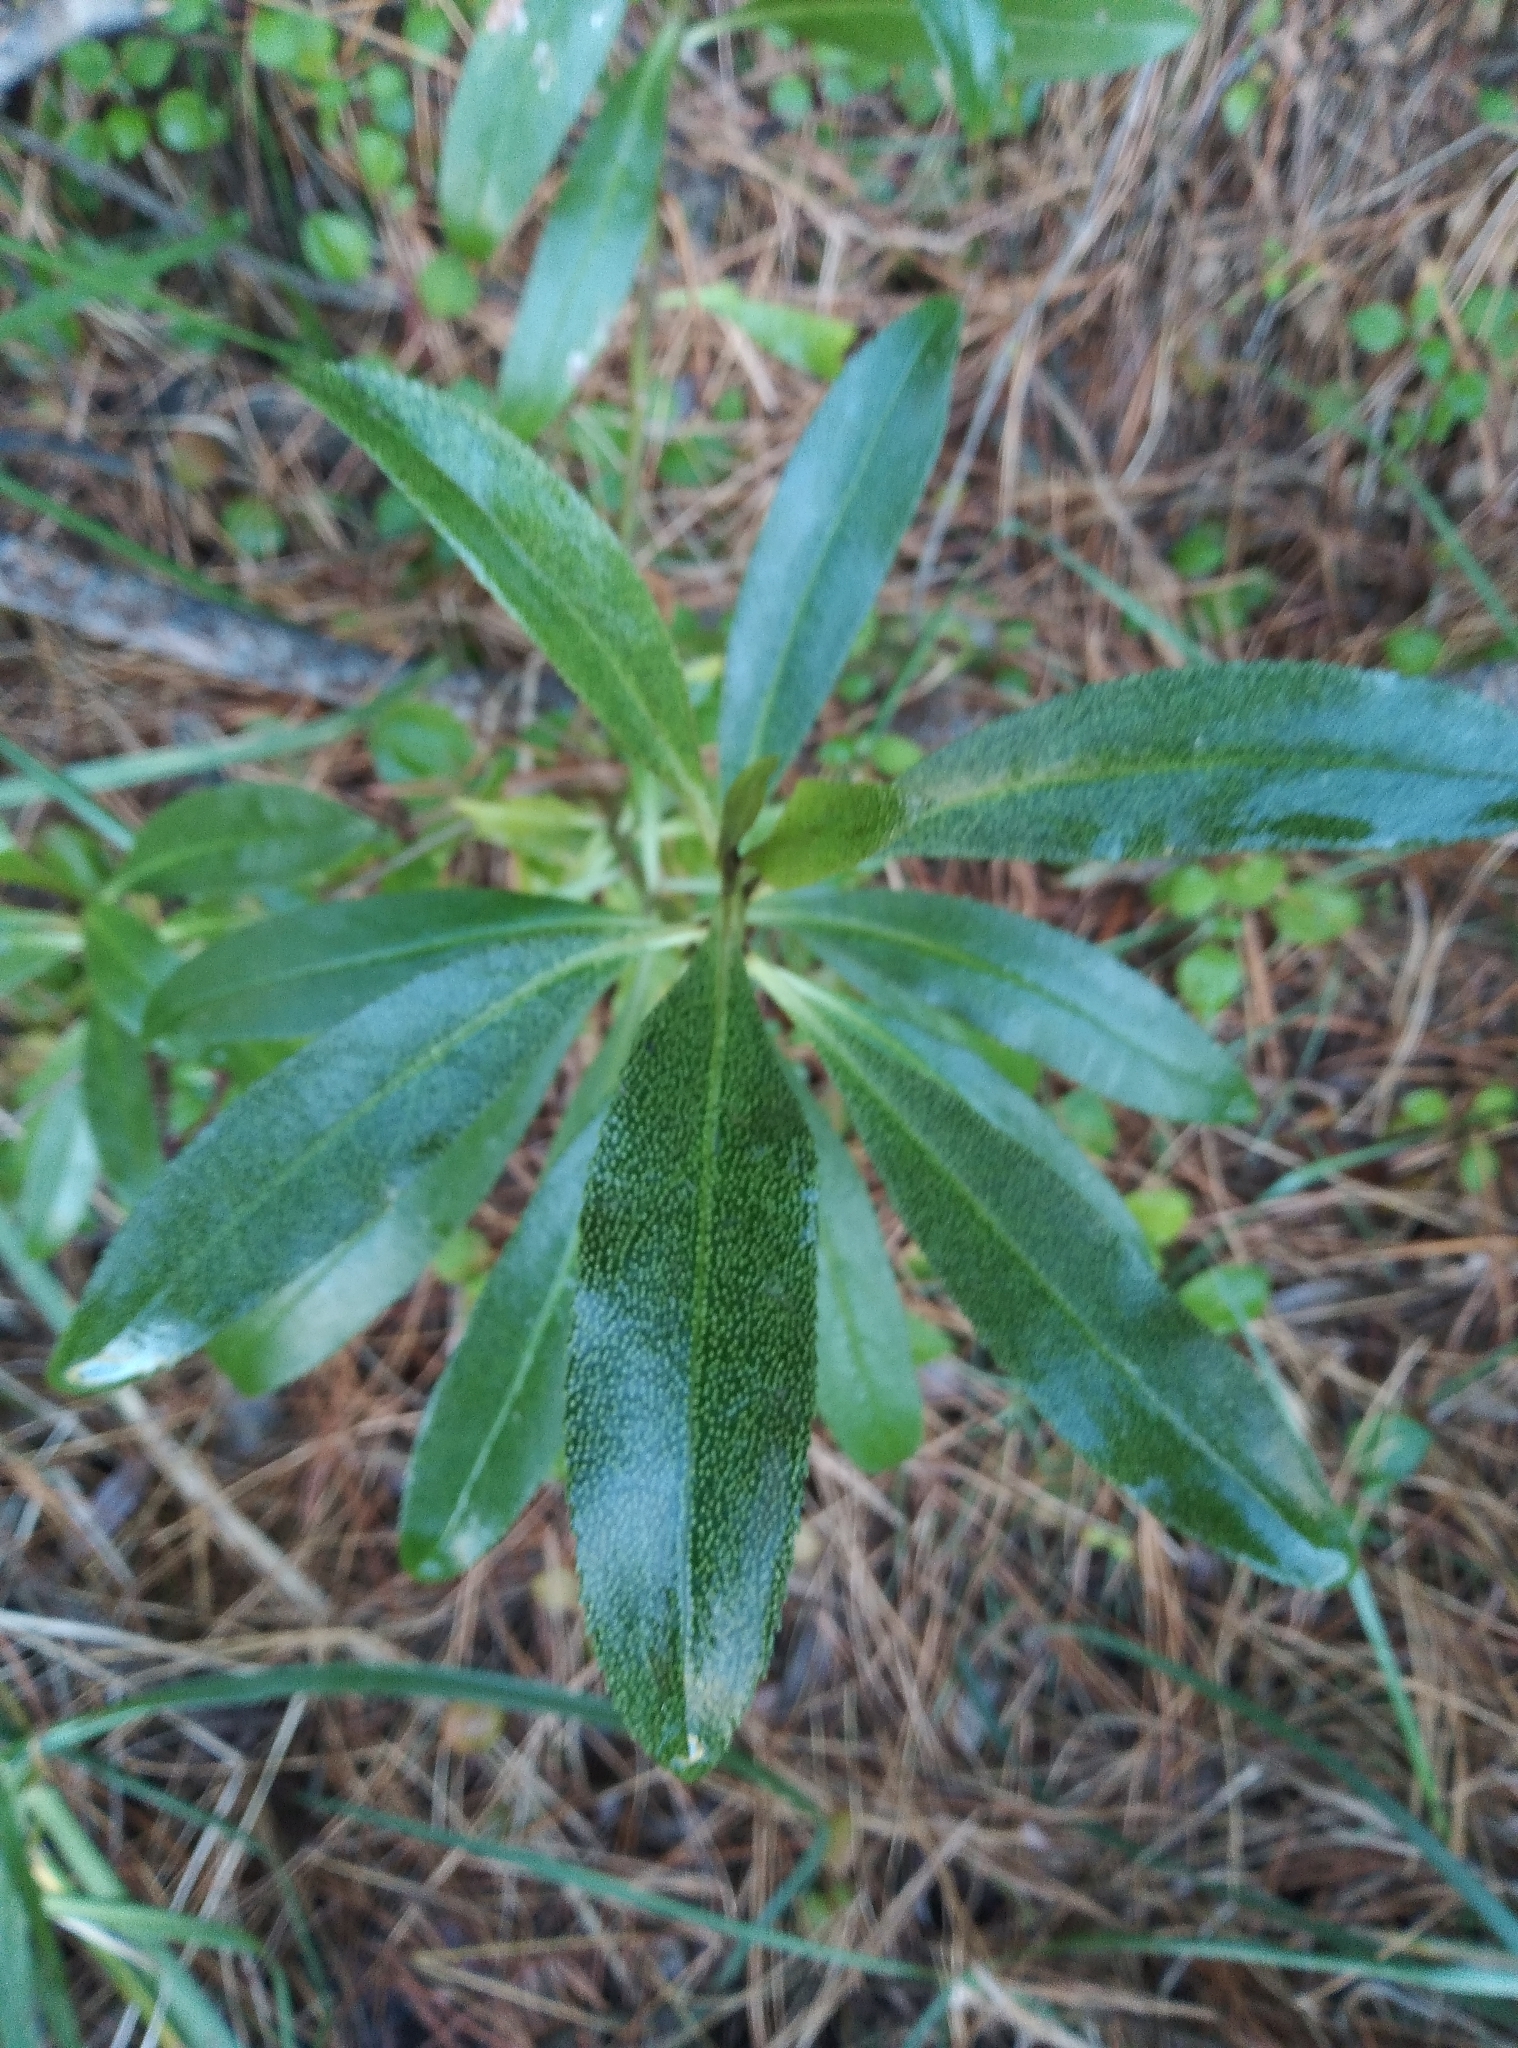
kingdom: Plantae
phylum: Tracheophyta
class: Magnoliopsida
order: Lamiales
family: Scrophulariaceae
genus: Myoporum
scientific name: Myoporum laetum
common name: Ngaio tree
